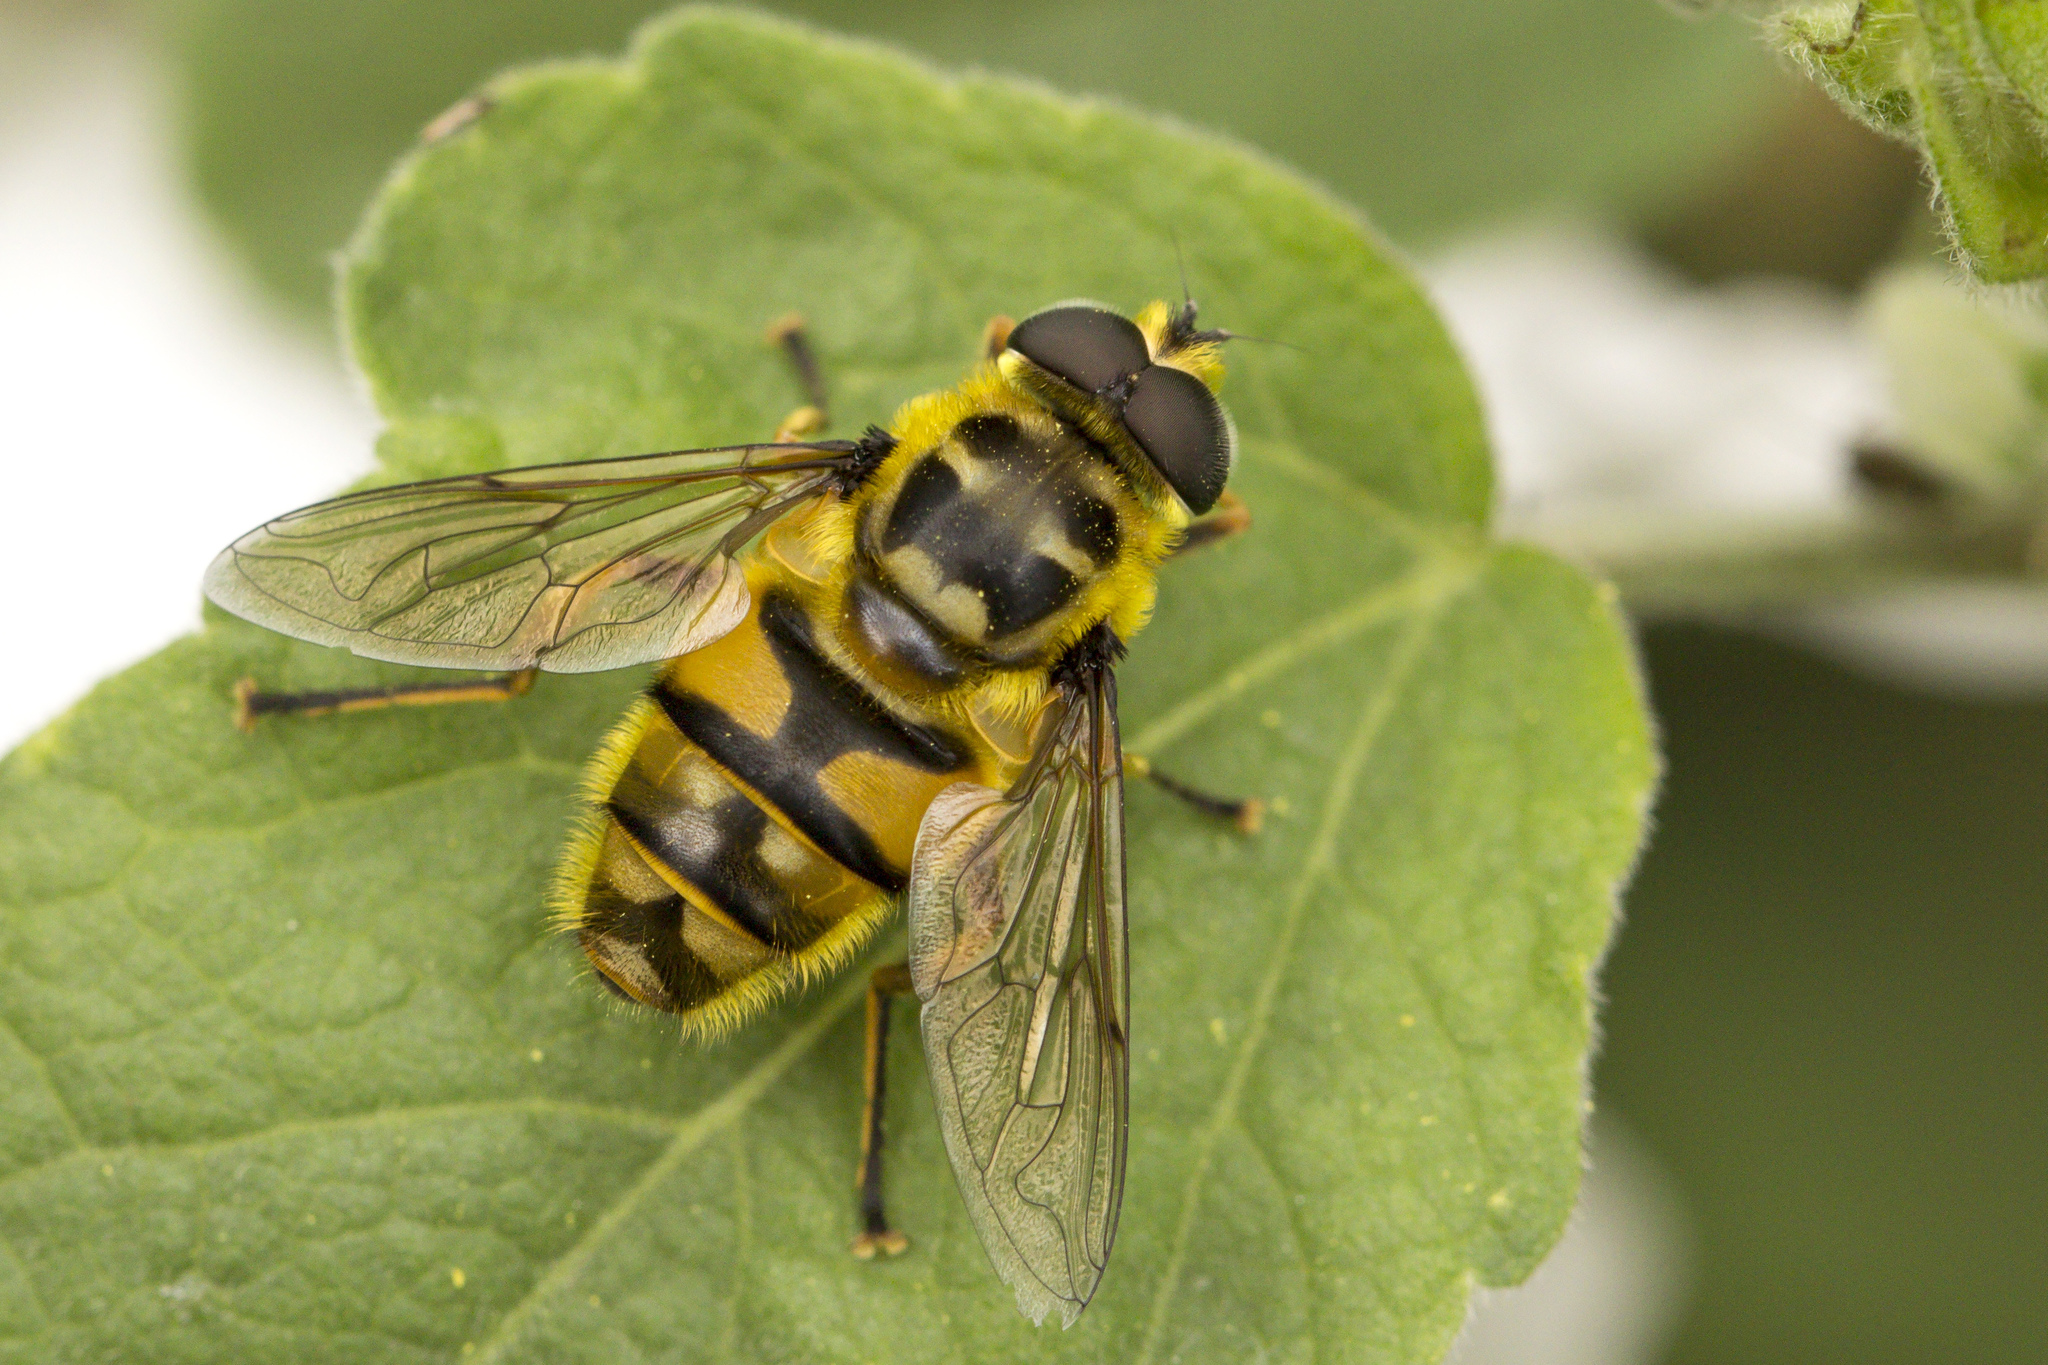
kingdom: Animalia
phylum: Arthropoda
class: Insecta
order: Diptera
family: Syrphidae
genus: Myathropa
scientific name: Myathropa florea
